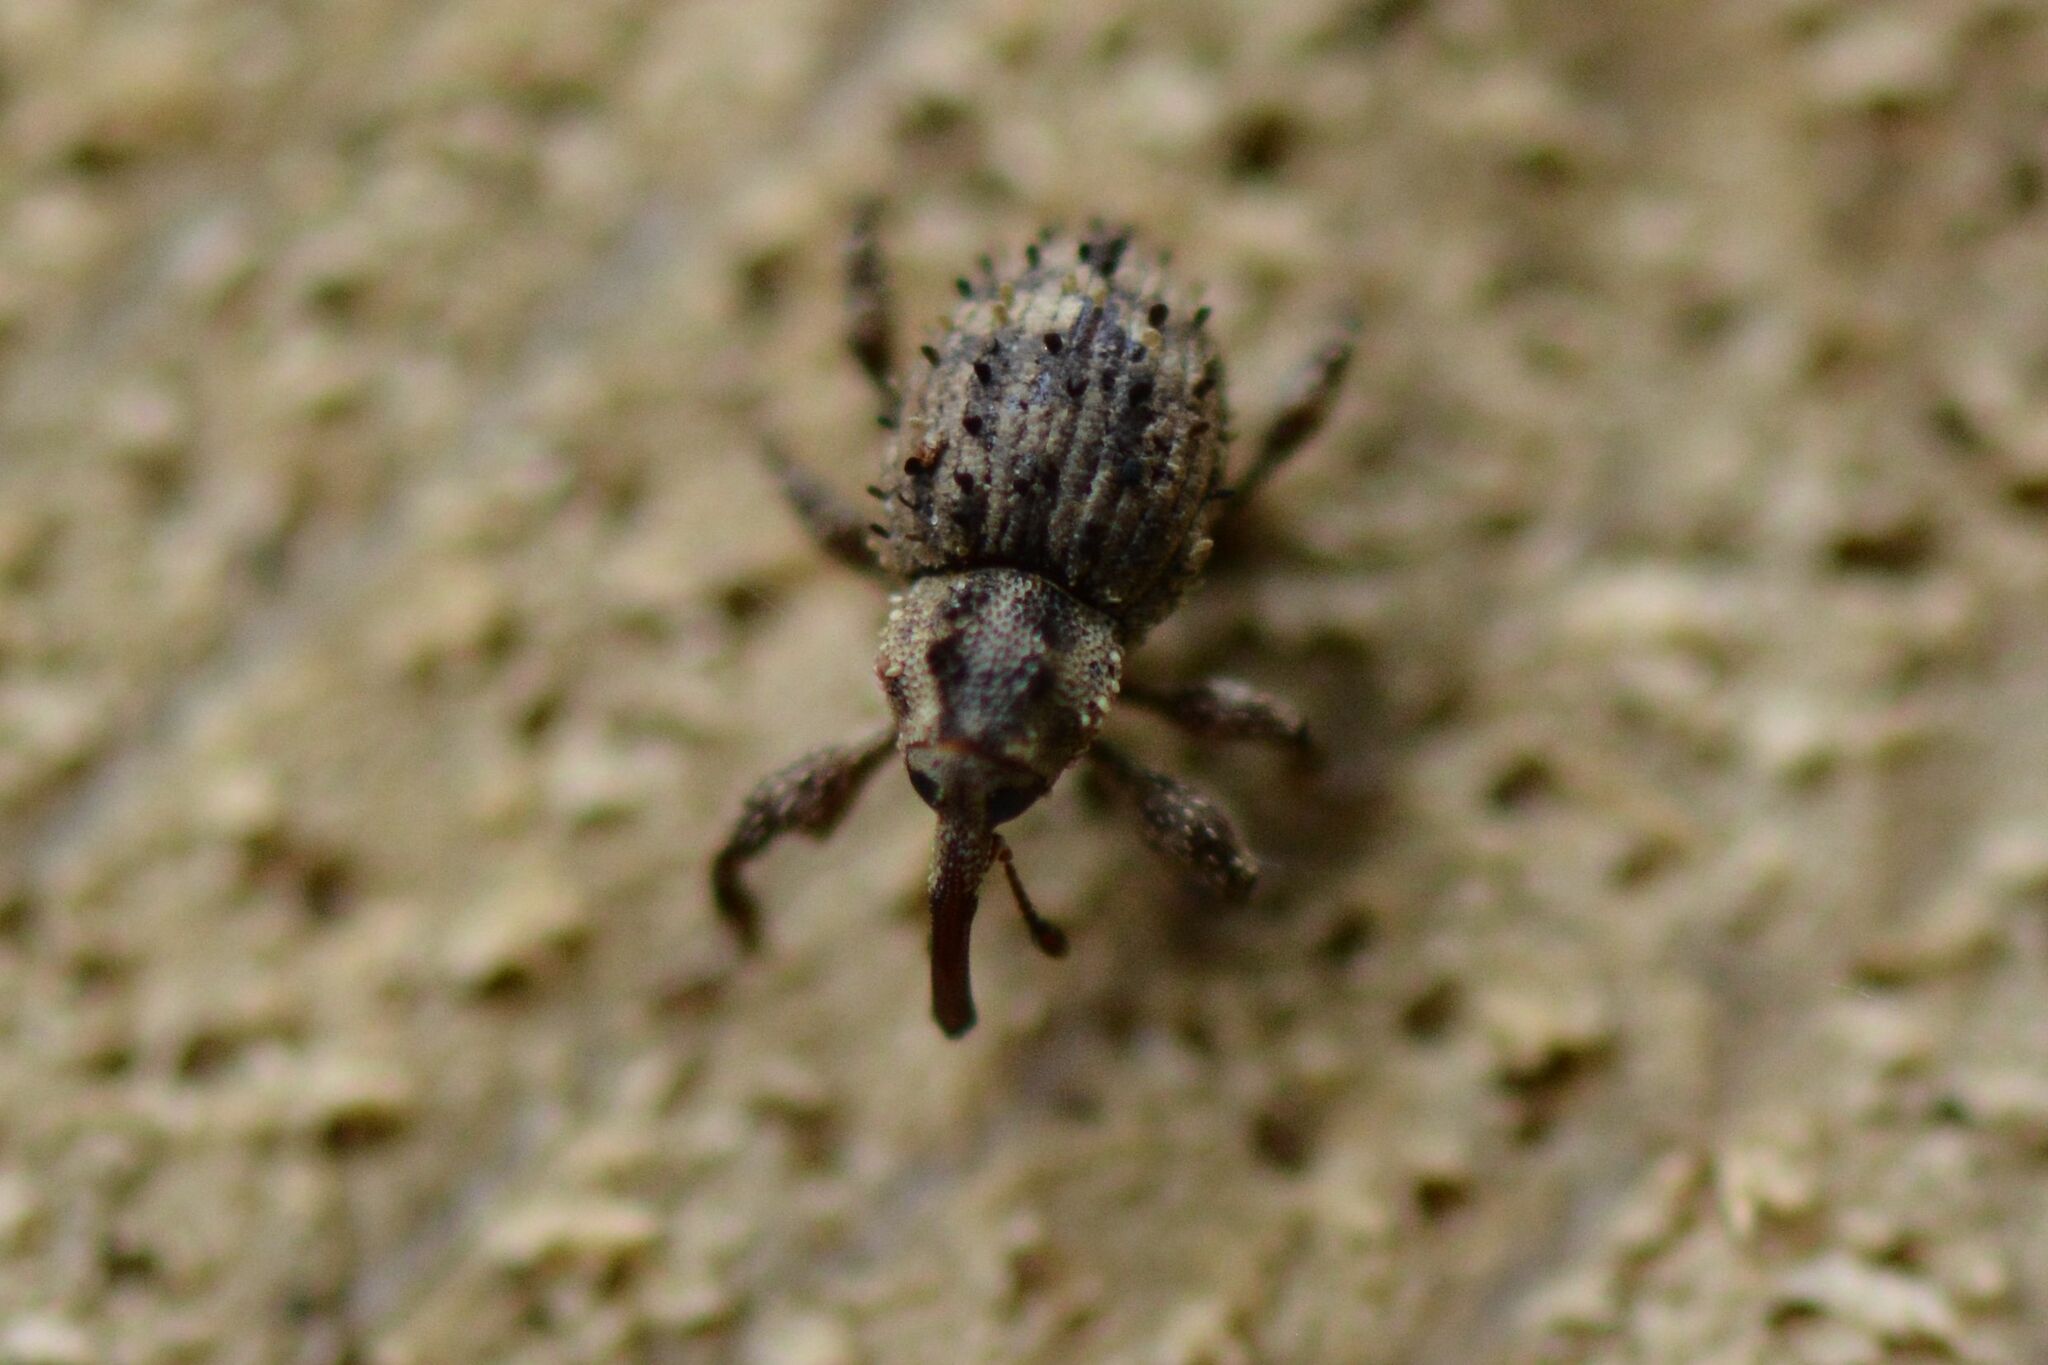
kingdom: Animalia
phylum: Arthropoda
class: Insecta
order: Coleoptera
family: Curculionidae
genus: Trachodes
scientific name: Trachodes hispidus
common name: Weevil
